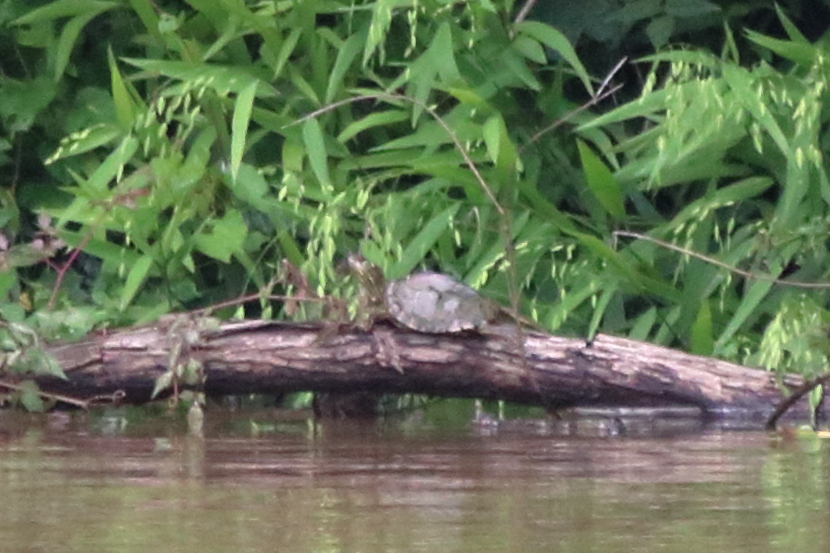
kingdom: Animalia
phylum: Chordata
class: Testudines
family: Emydidae
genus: Graptemys
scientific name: Graptemys pearlensis
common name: Pearl river map turtle
